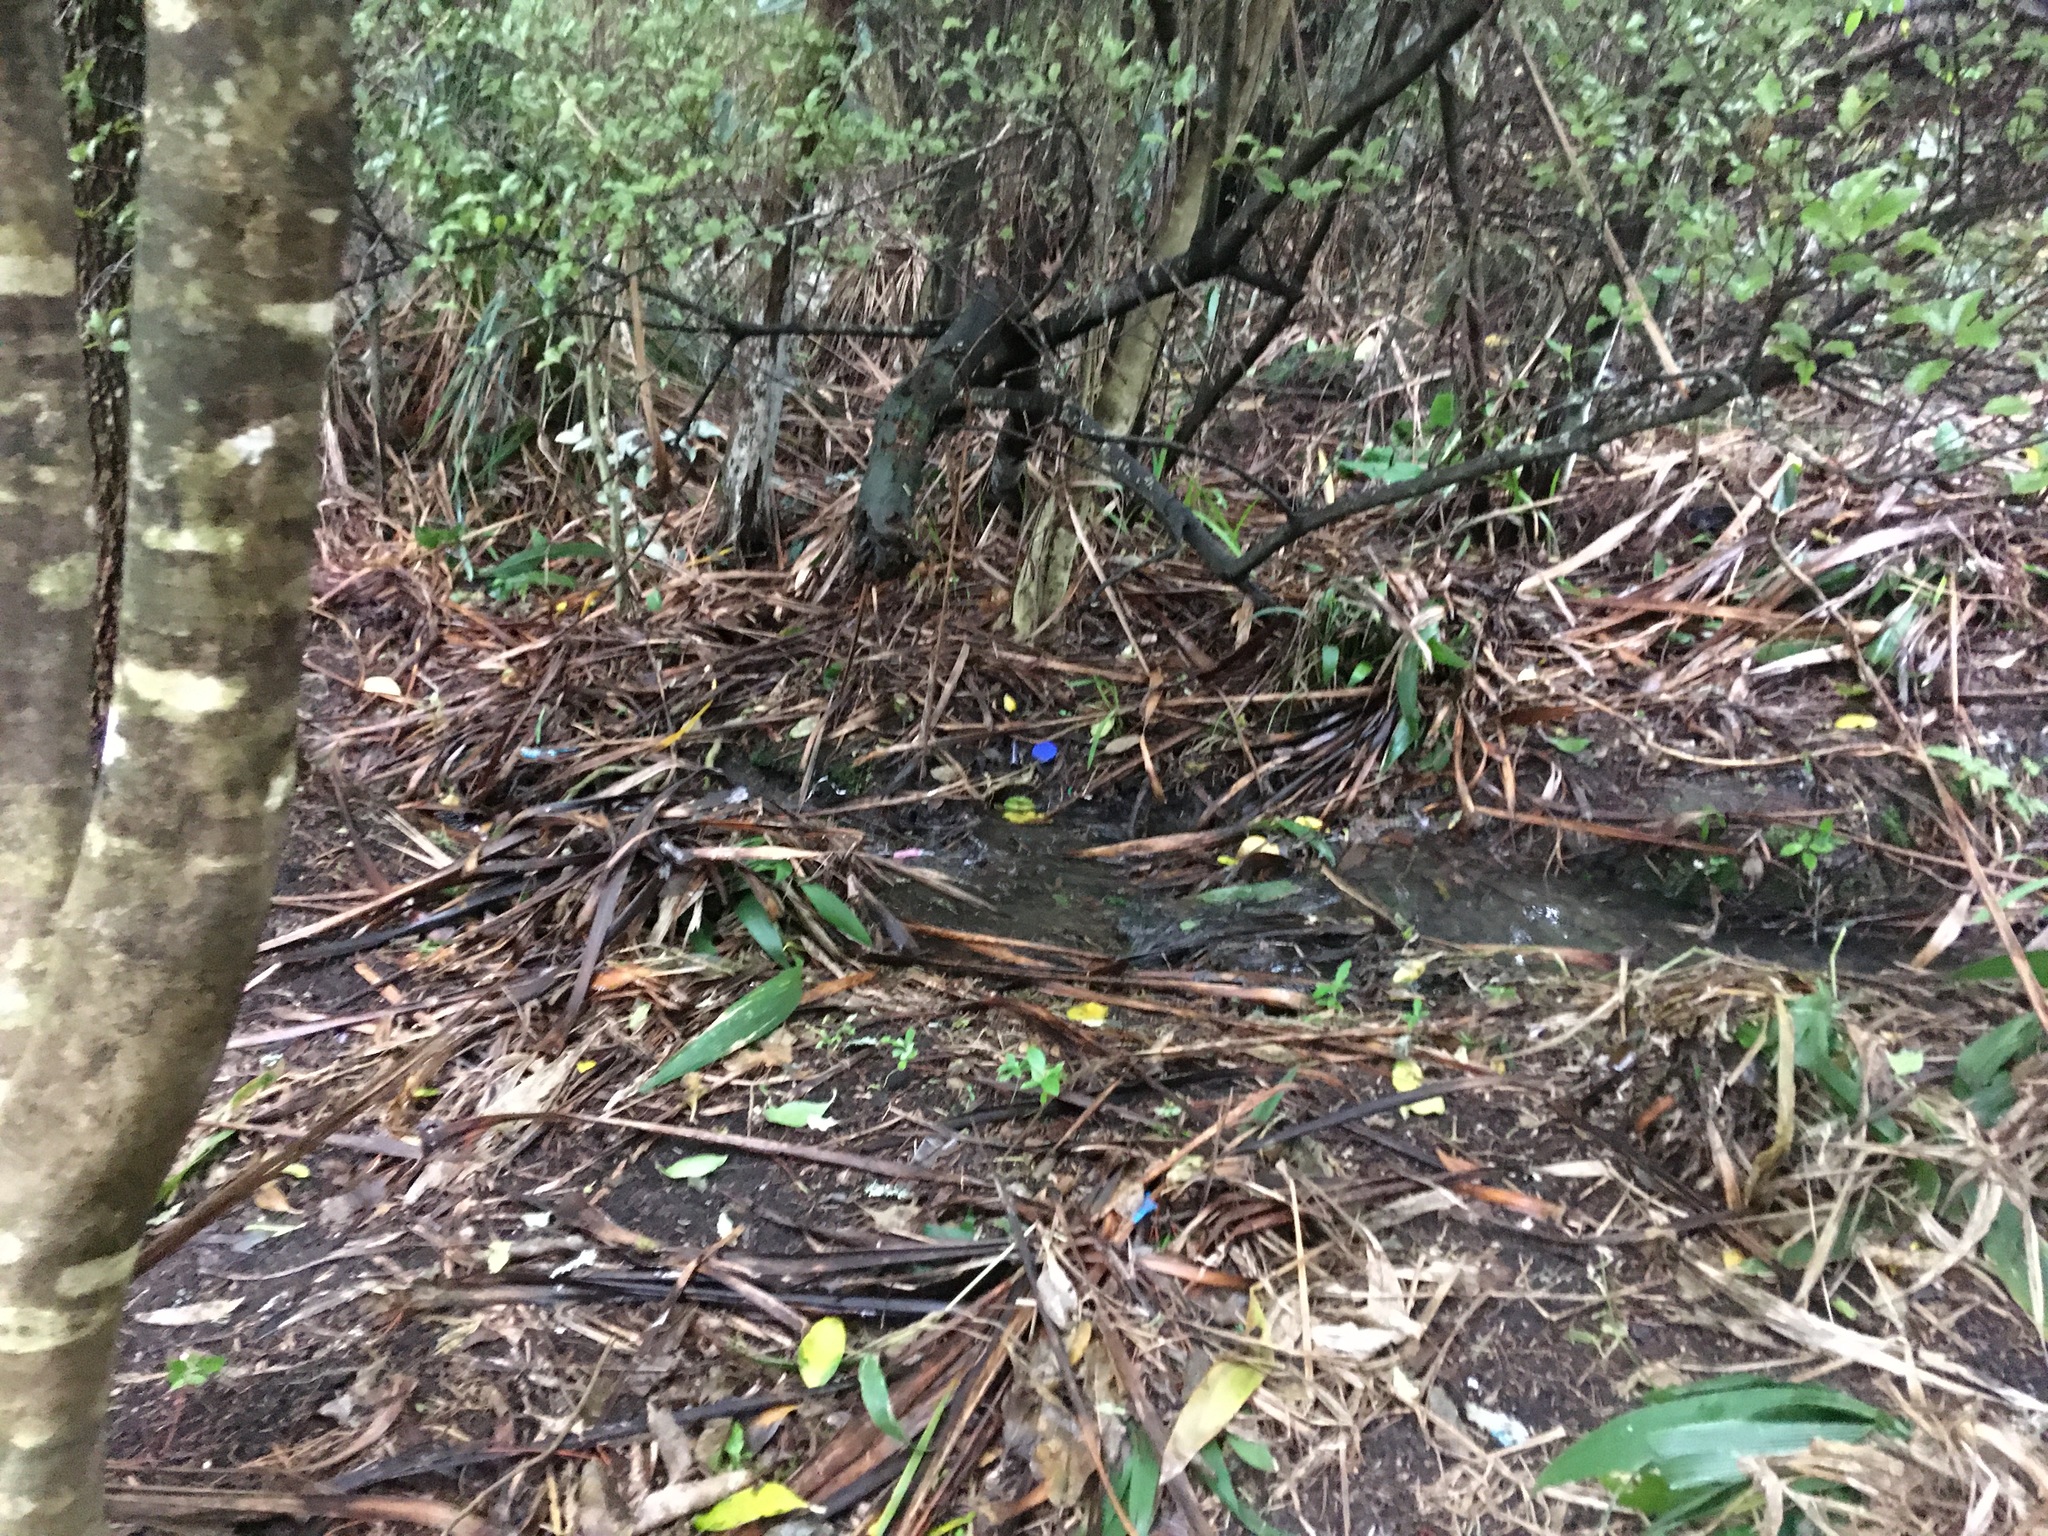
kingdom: Plantae
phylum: Tracheophyta
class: Magnoliopsida
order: Ericales
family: Primulaceae
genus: Myrsine
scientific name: Myrsine australis
